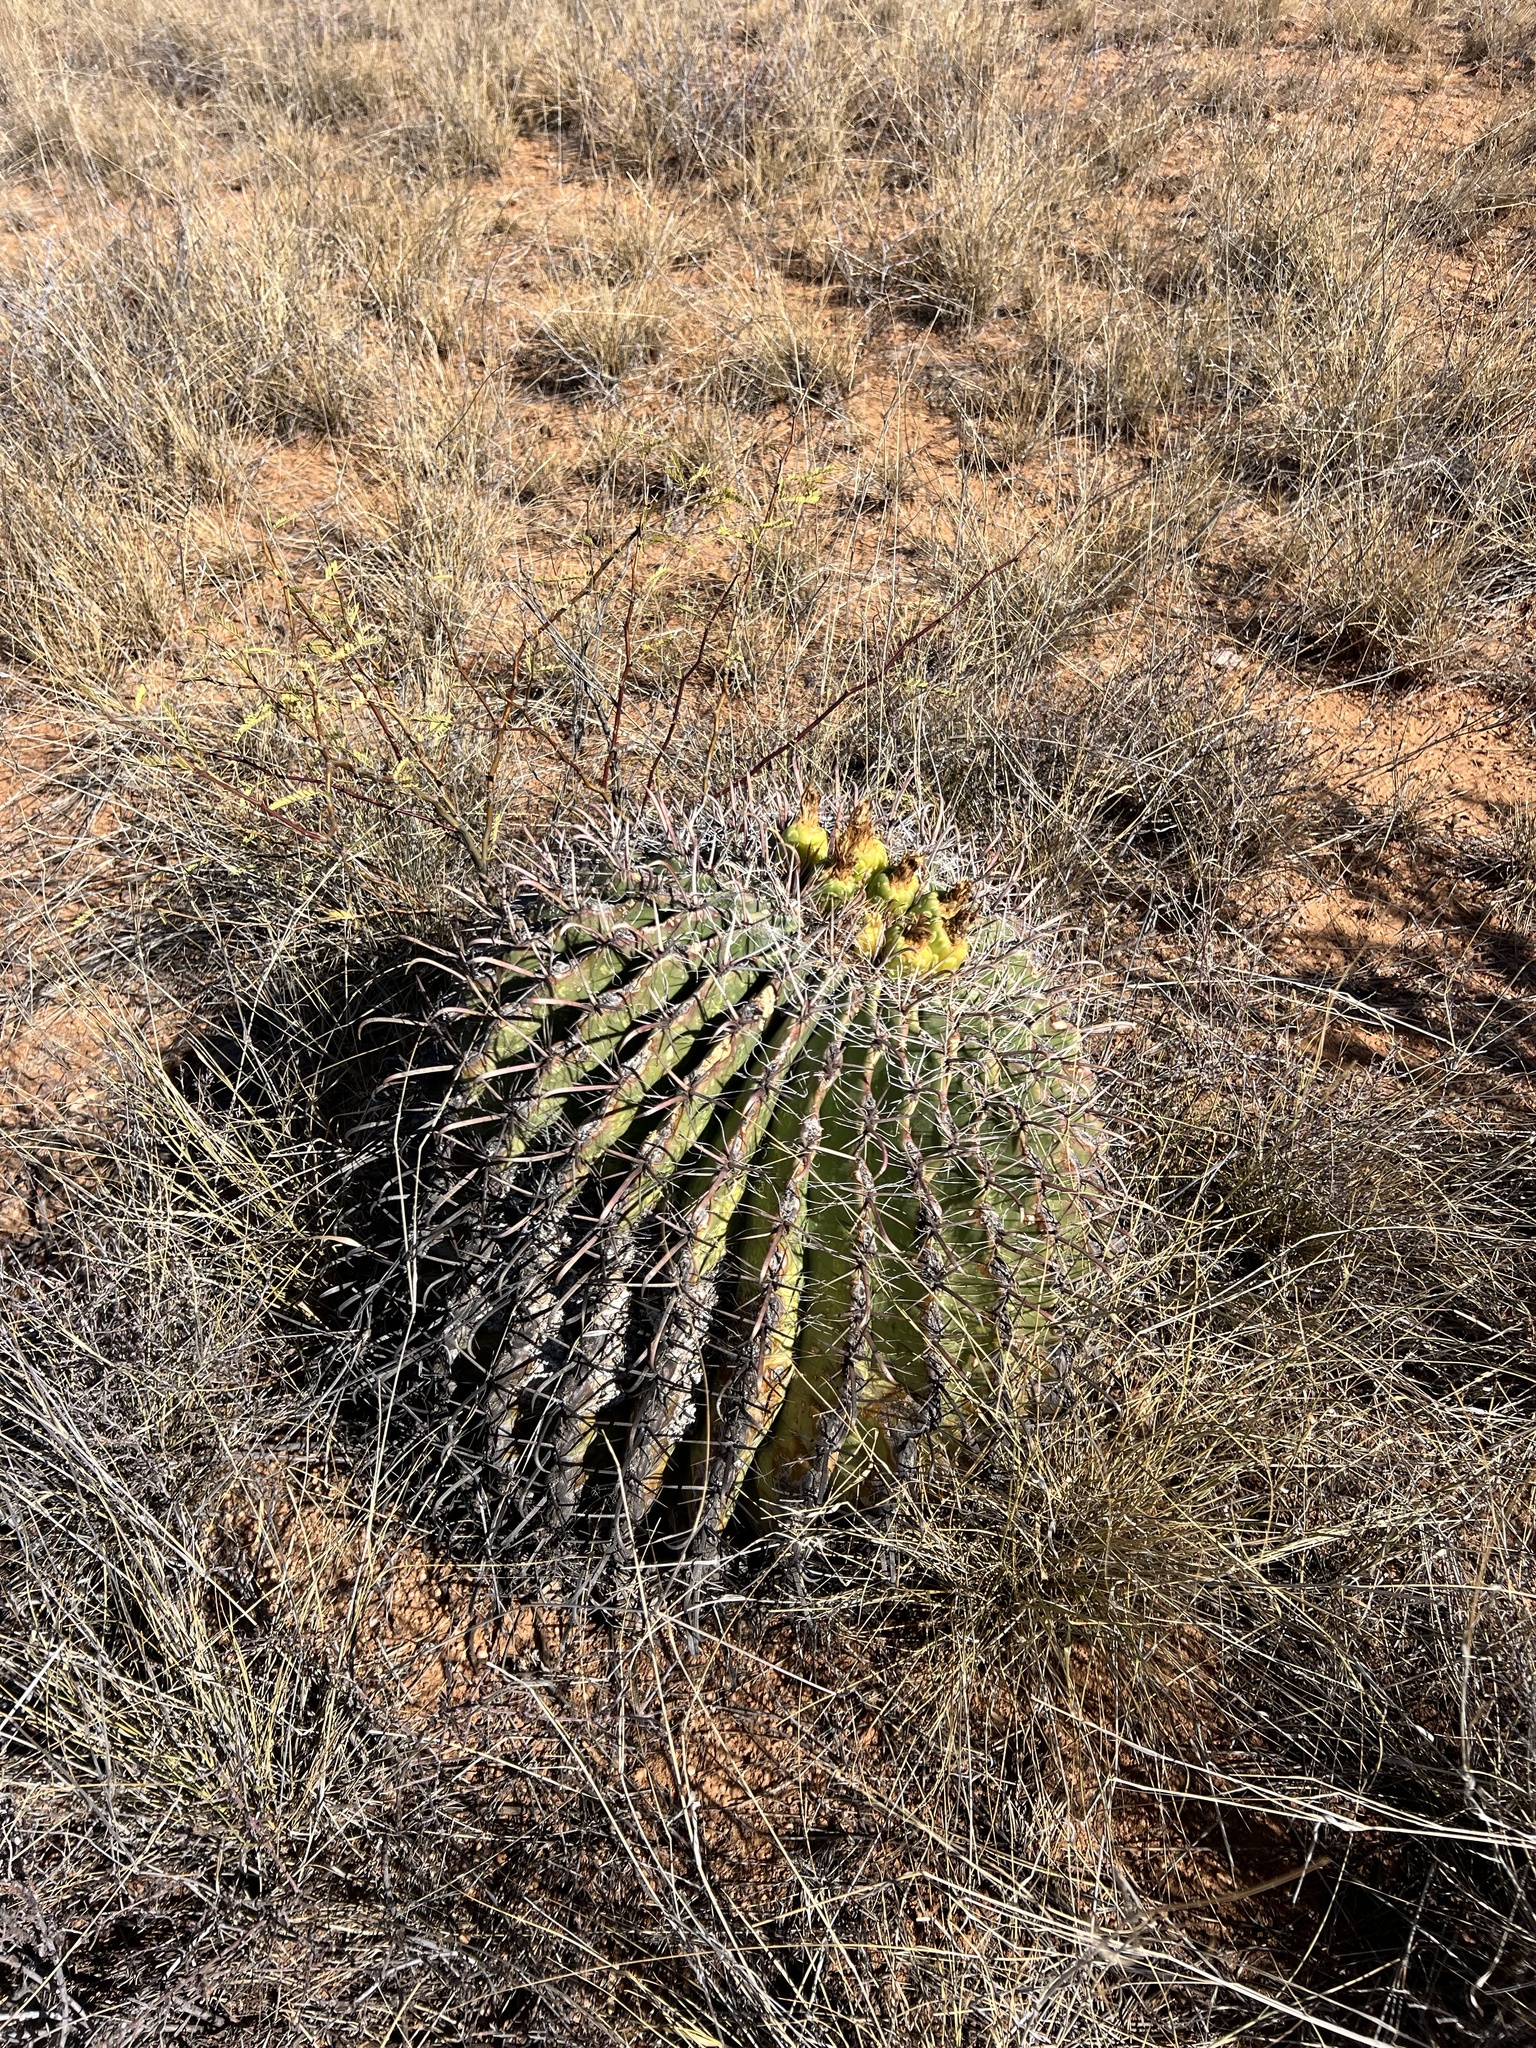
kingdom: Plantae
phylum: Tracheophyta
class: Magnoliopsida
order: Caryophyllales
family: Cactaceae
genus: Ferocactus
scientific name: Ferocactus wislizeni
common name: Candy barrel cactus
